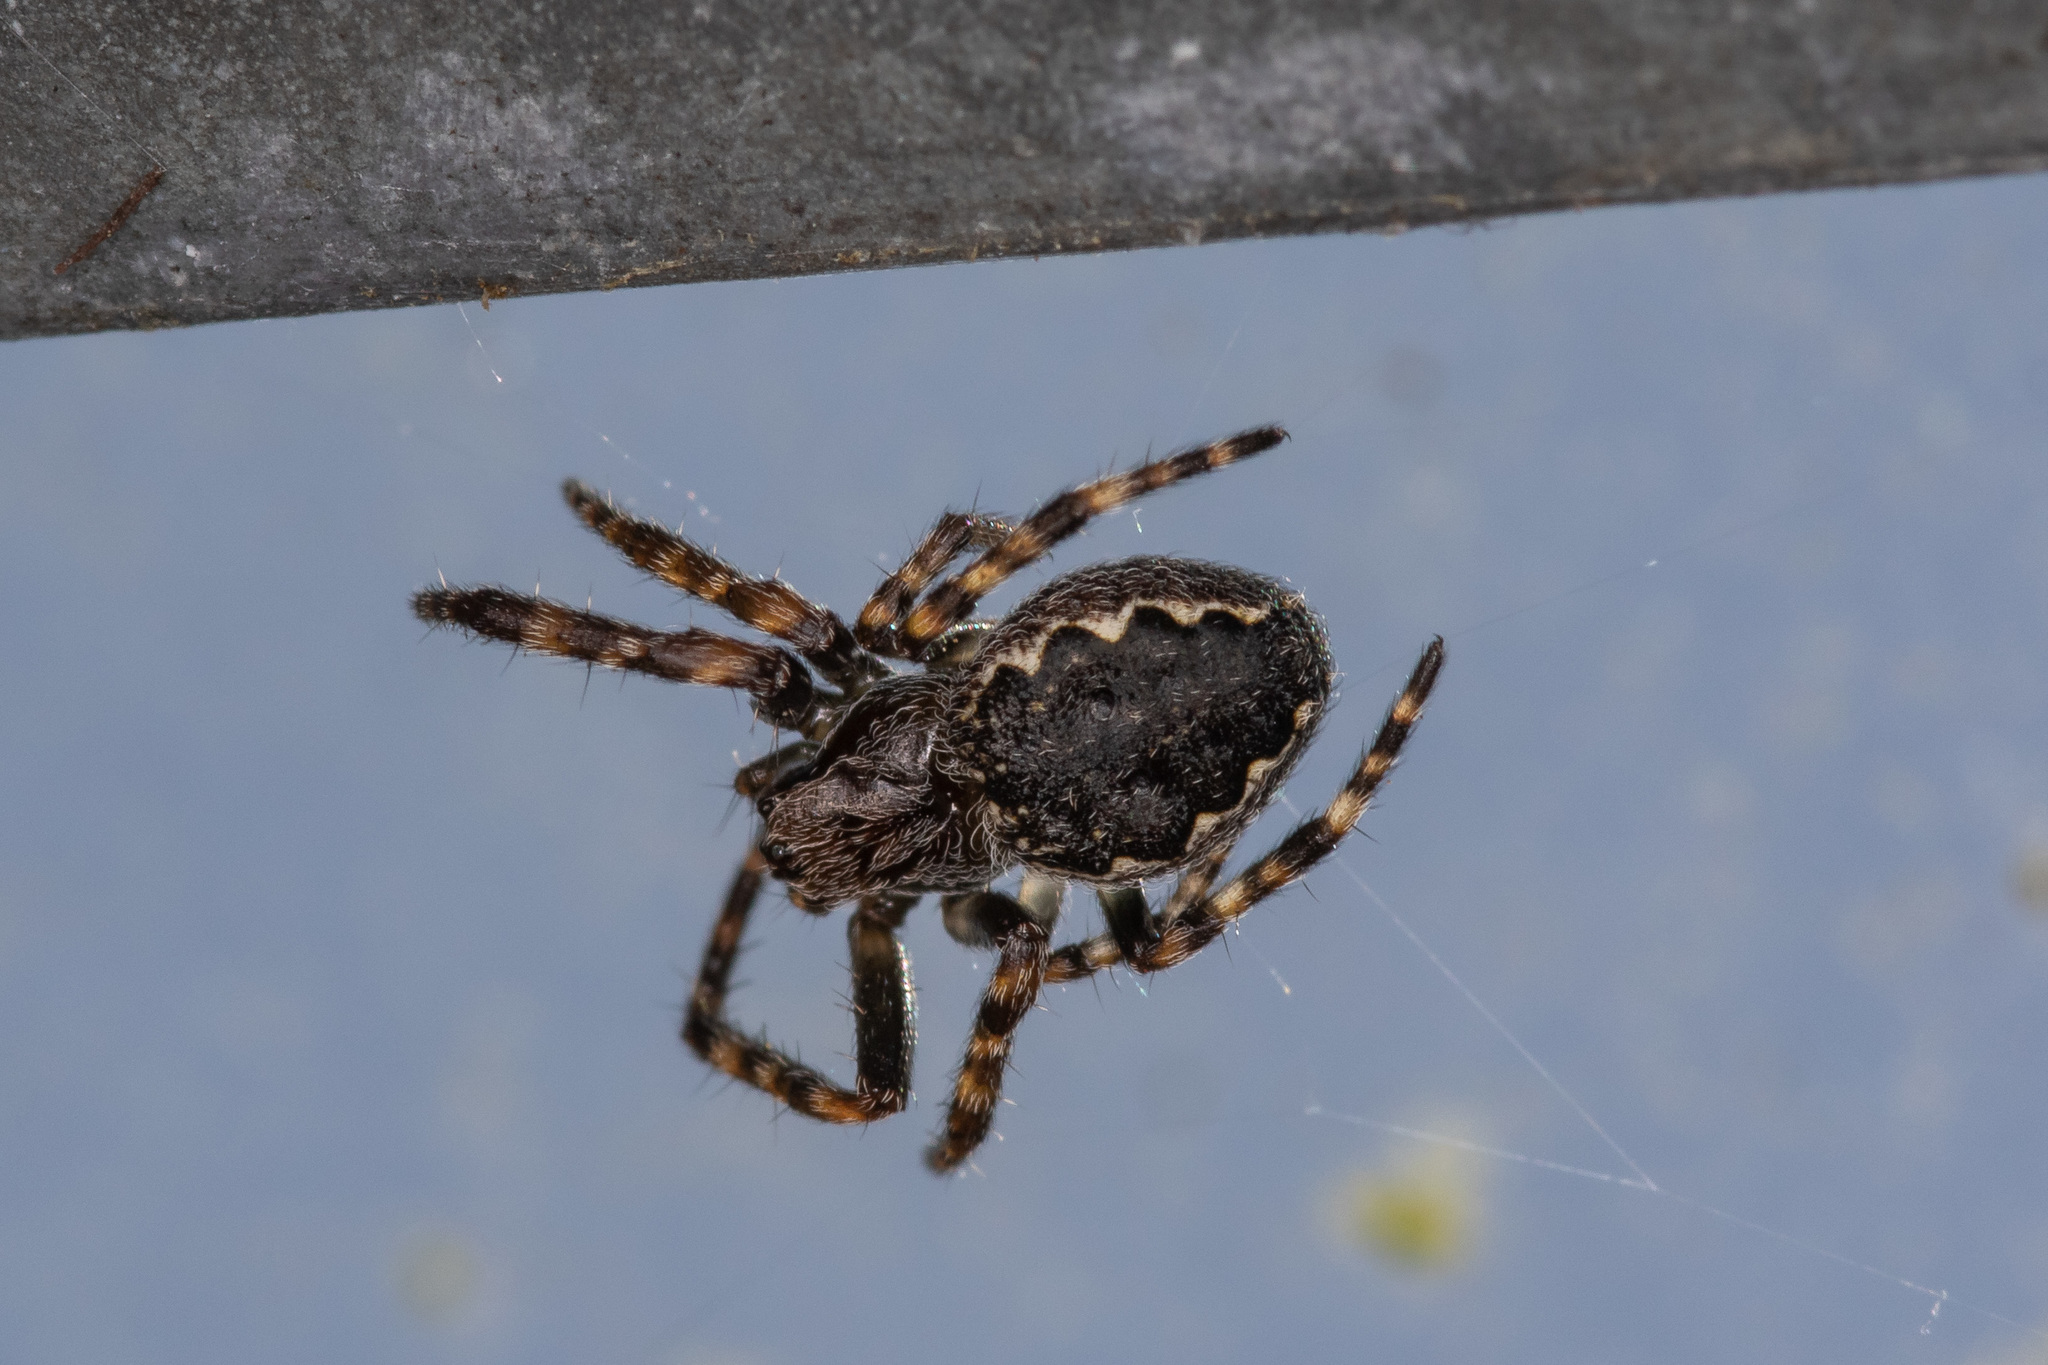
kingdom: Animalia
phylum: Arthropoda
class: Arachnida
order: Araneae
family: Araneidae
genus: Nuctenea
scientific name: Nuctenea umbratica
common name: Toad spider
